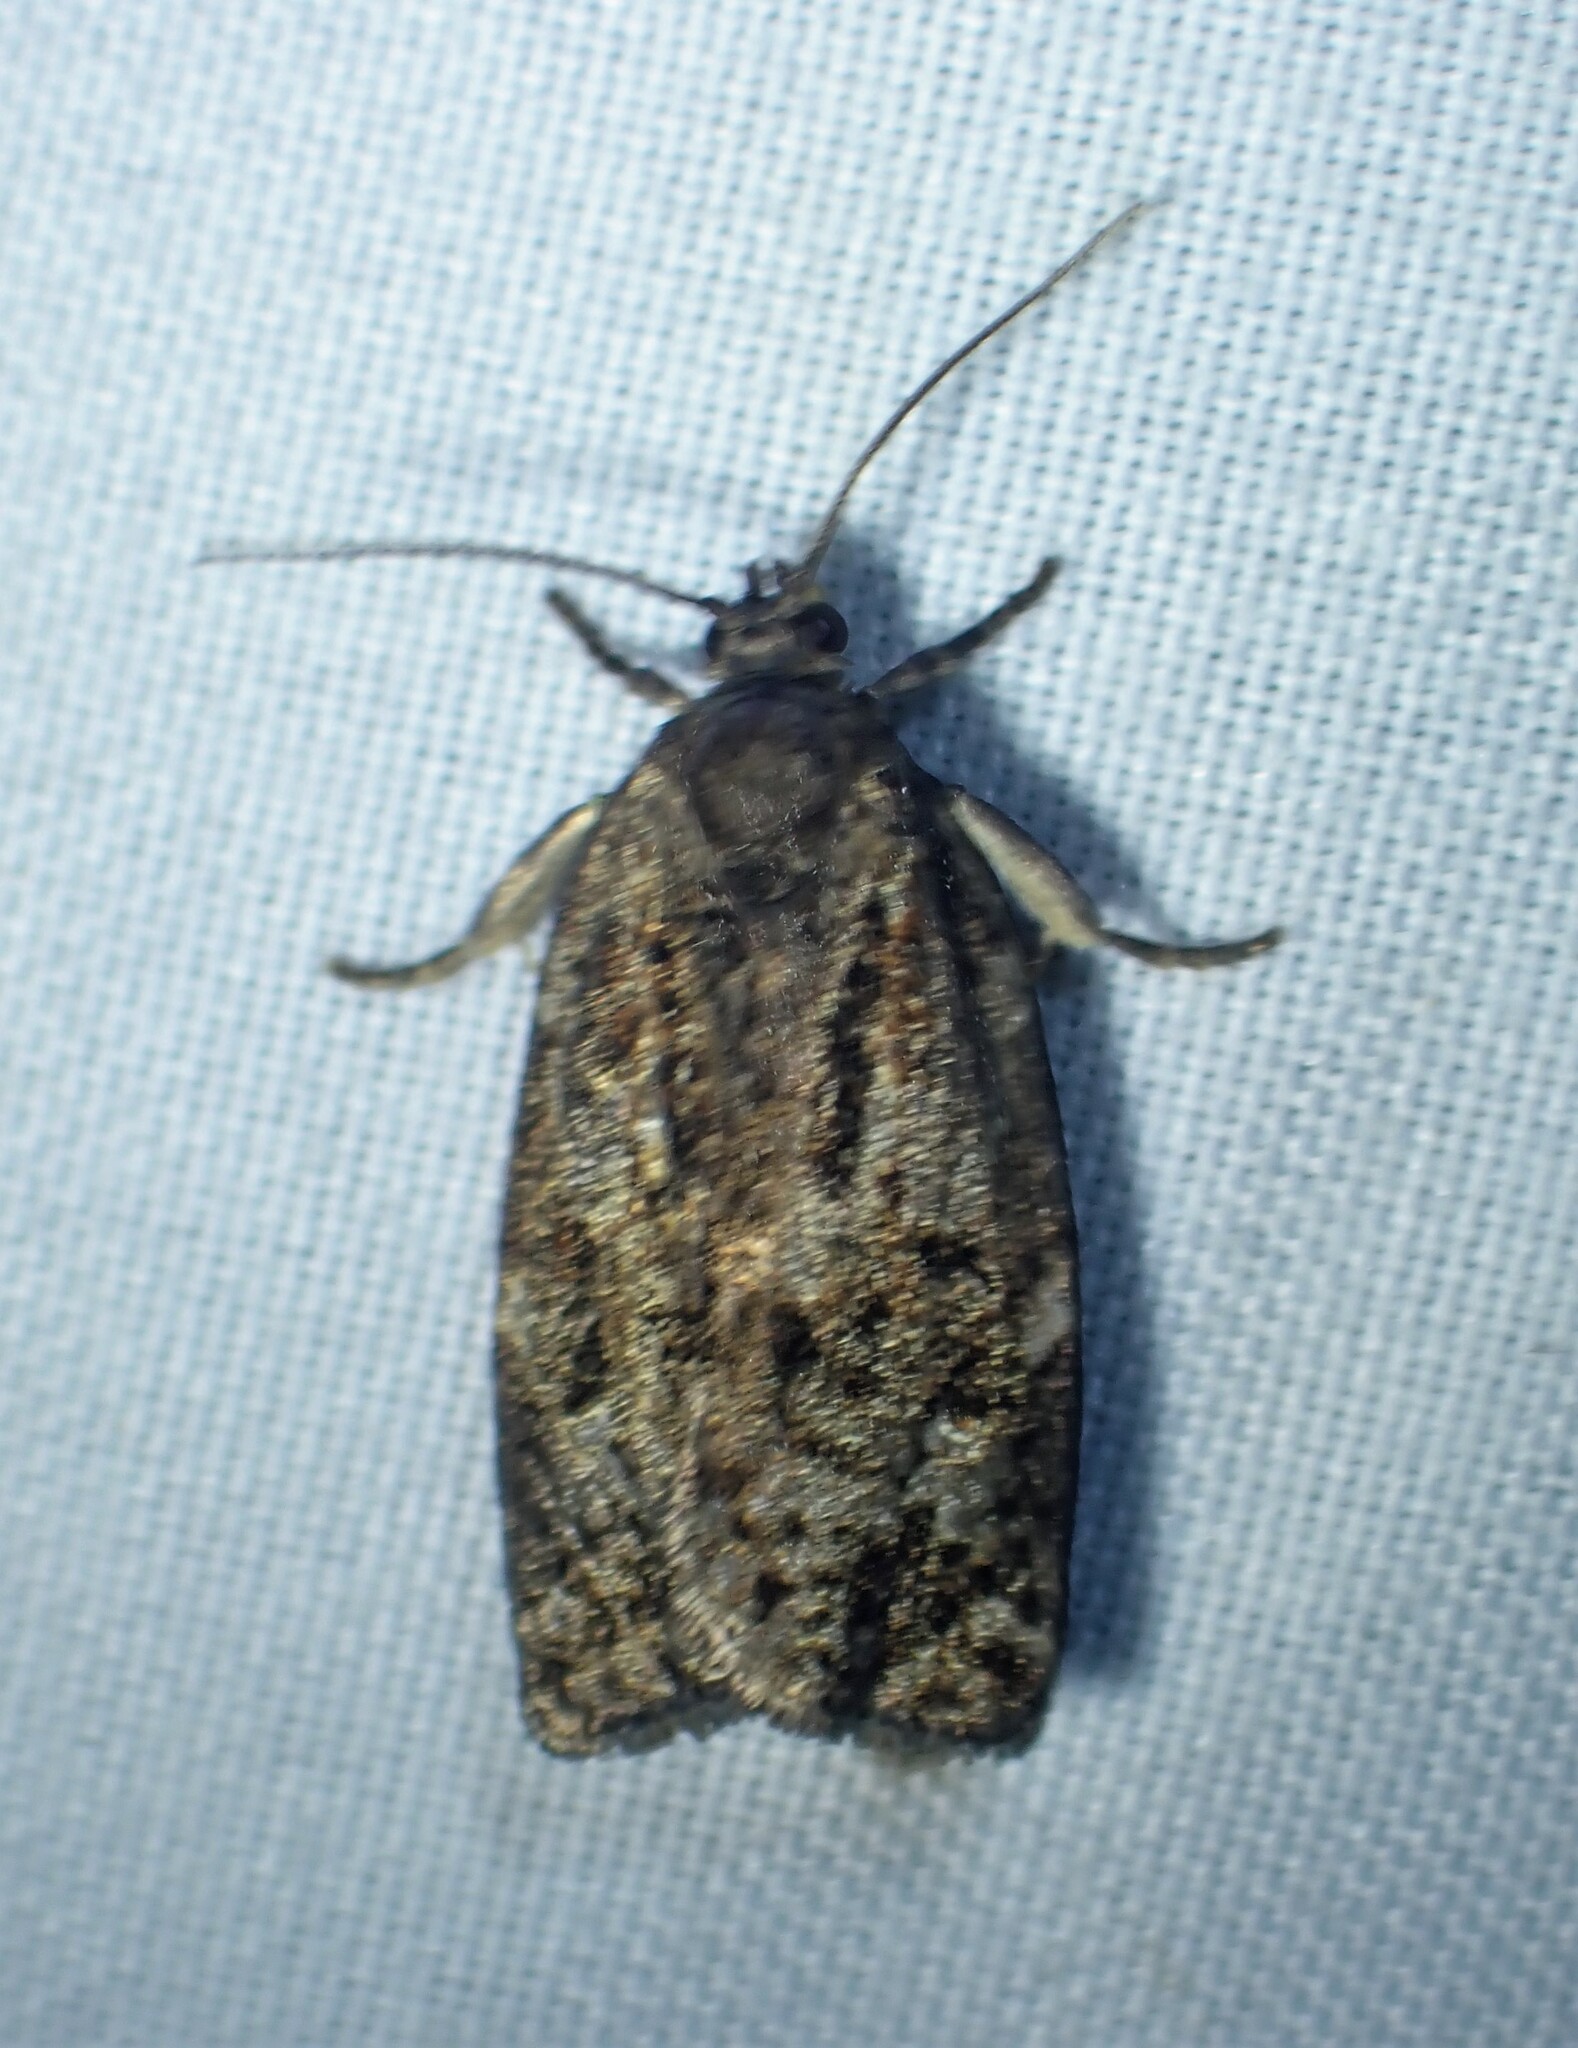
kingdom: Animalia
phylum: Arthropoda
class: Insecta
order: Lepidoptera
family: Tortricidae
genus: Choristoneura
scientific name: Choristoneura fumiferana
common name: Spruce budworm
